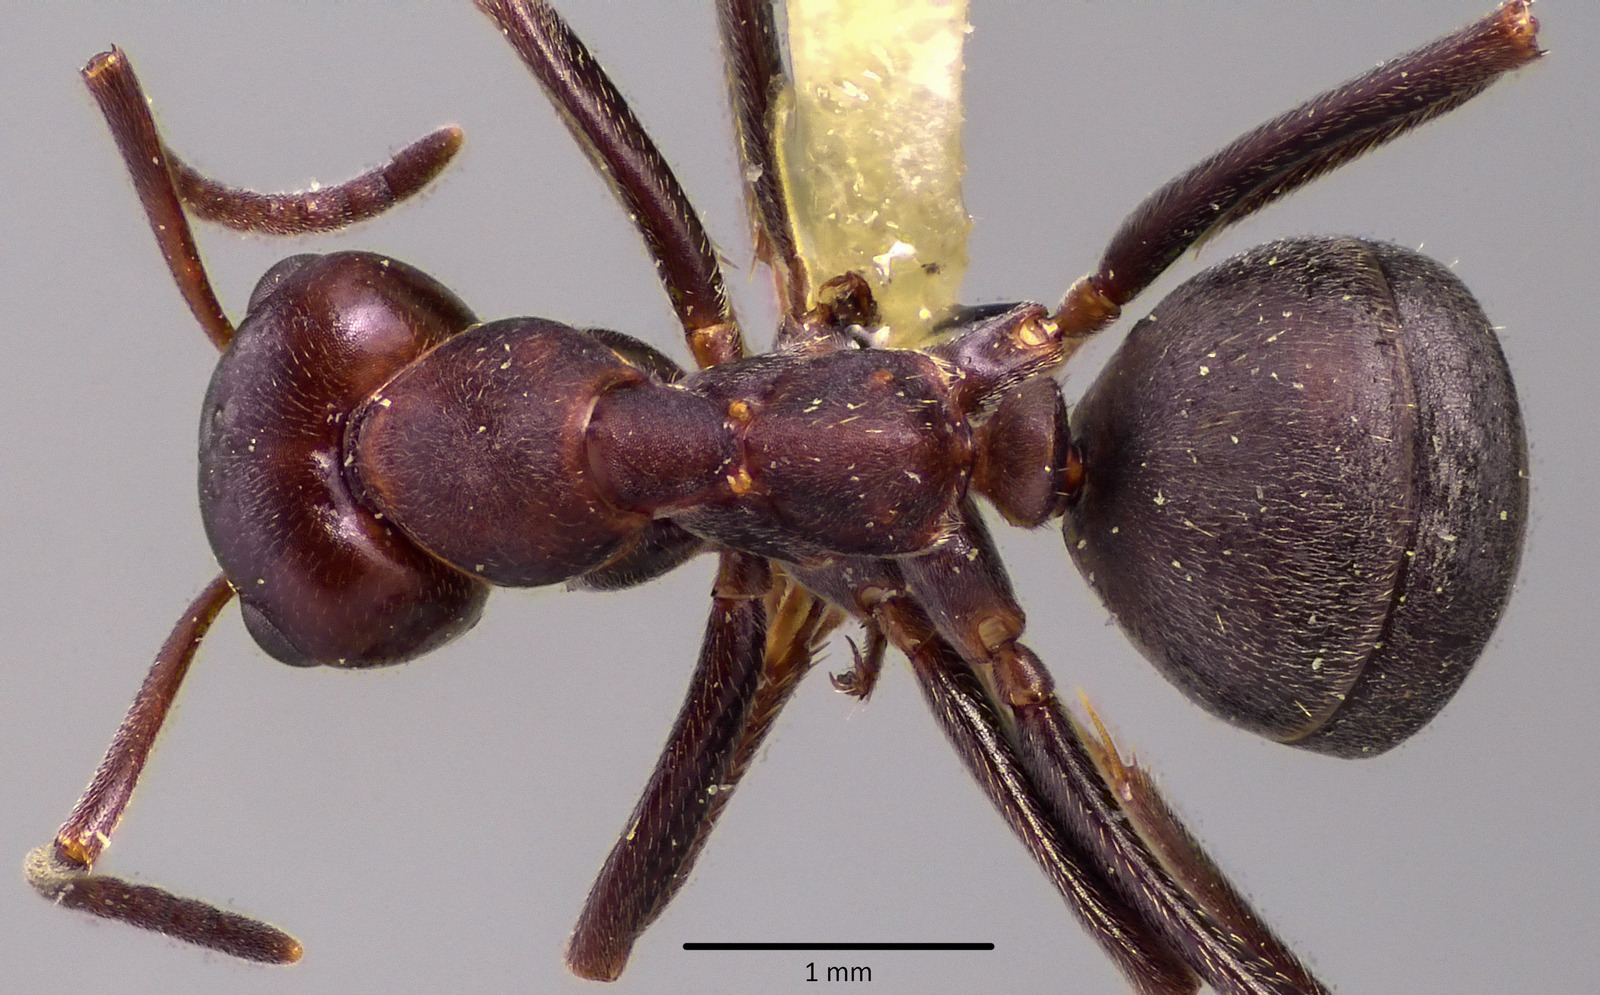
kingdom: Animalia
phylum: Arthropoda
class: Insecta
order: Hymenoptera
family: Formicidae
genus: Formica
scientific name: Formica prociliata
